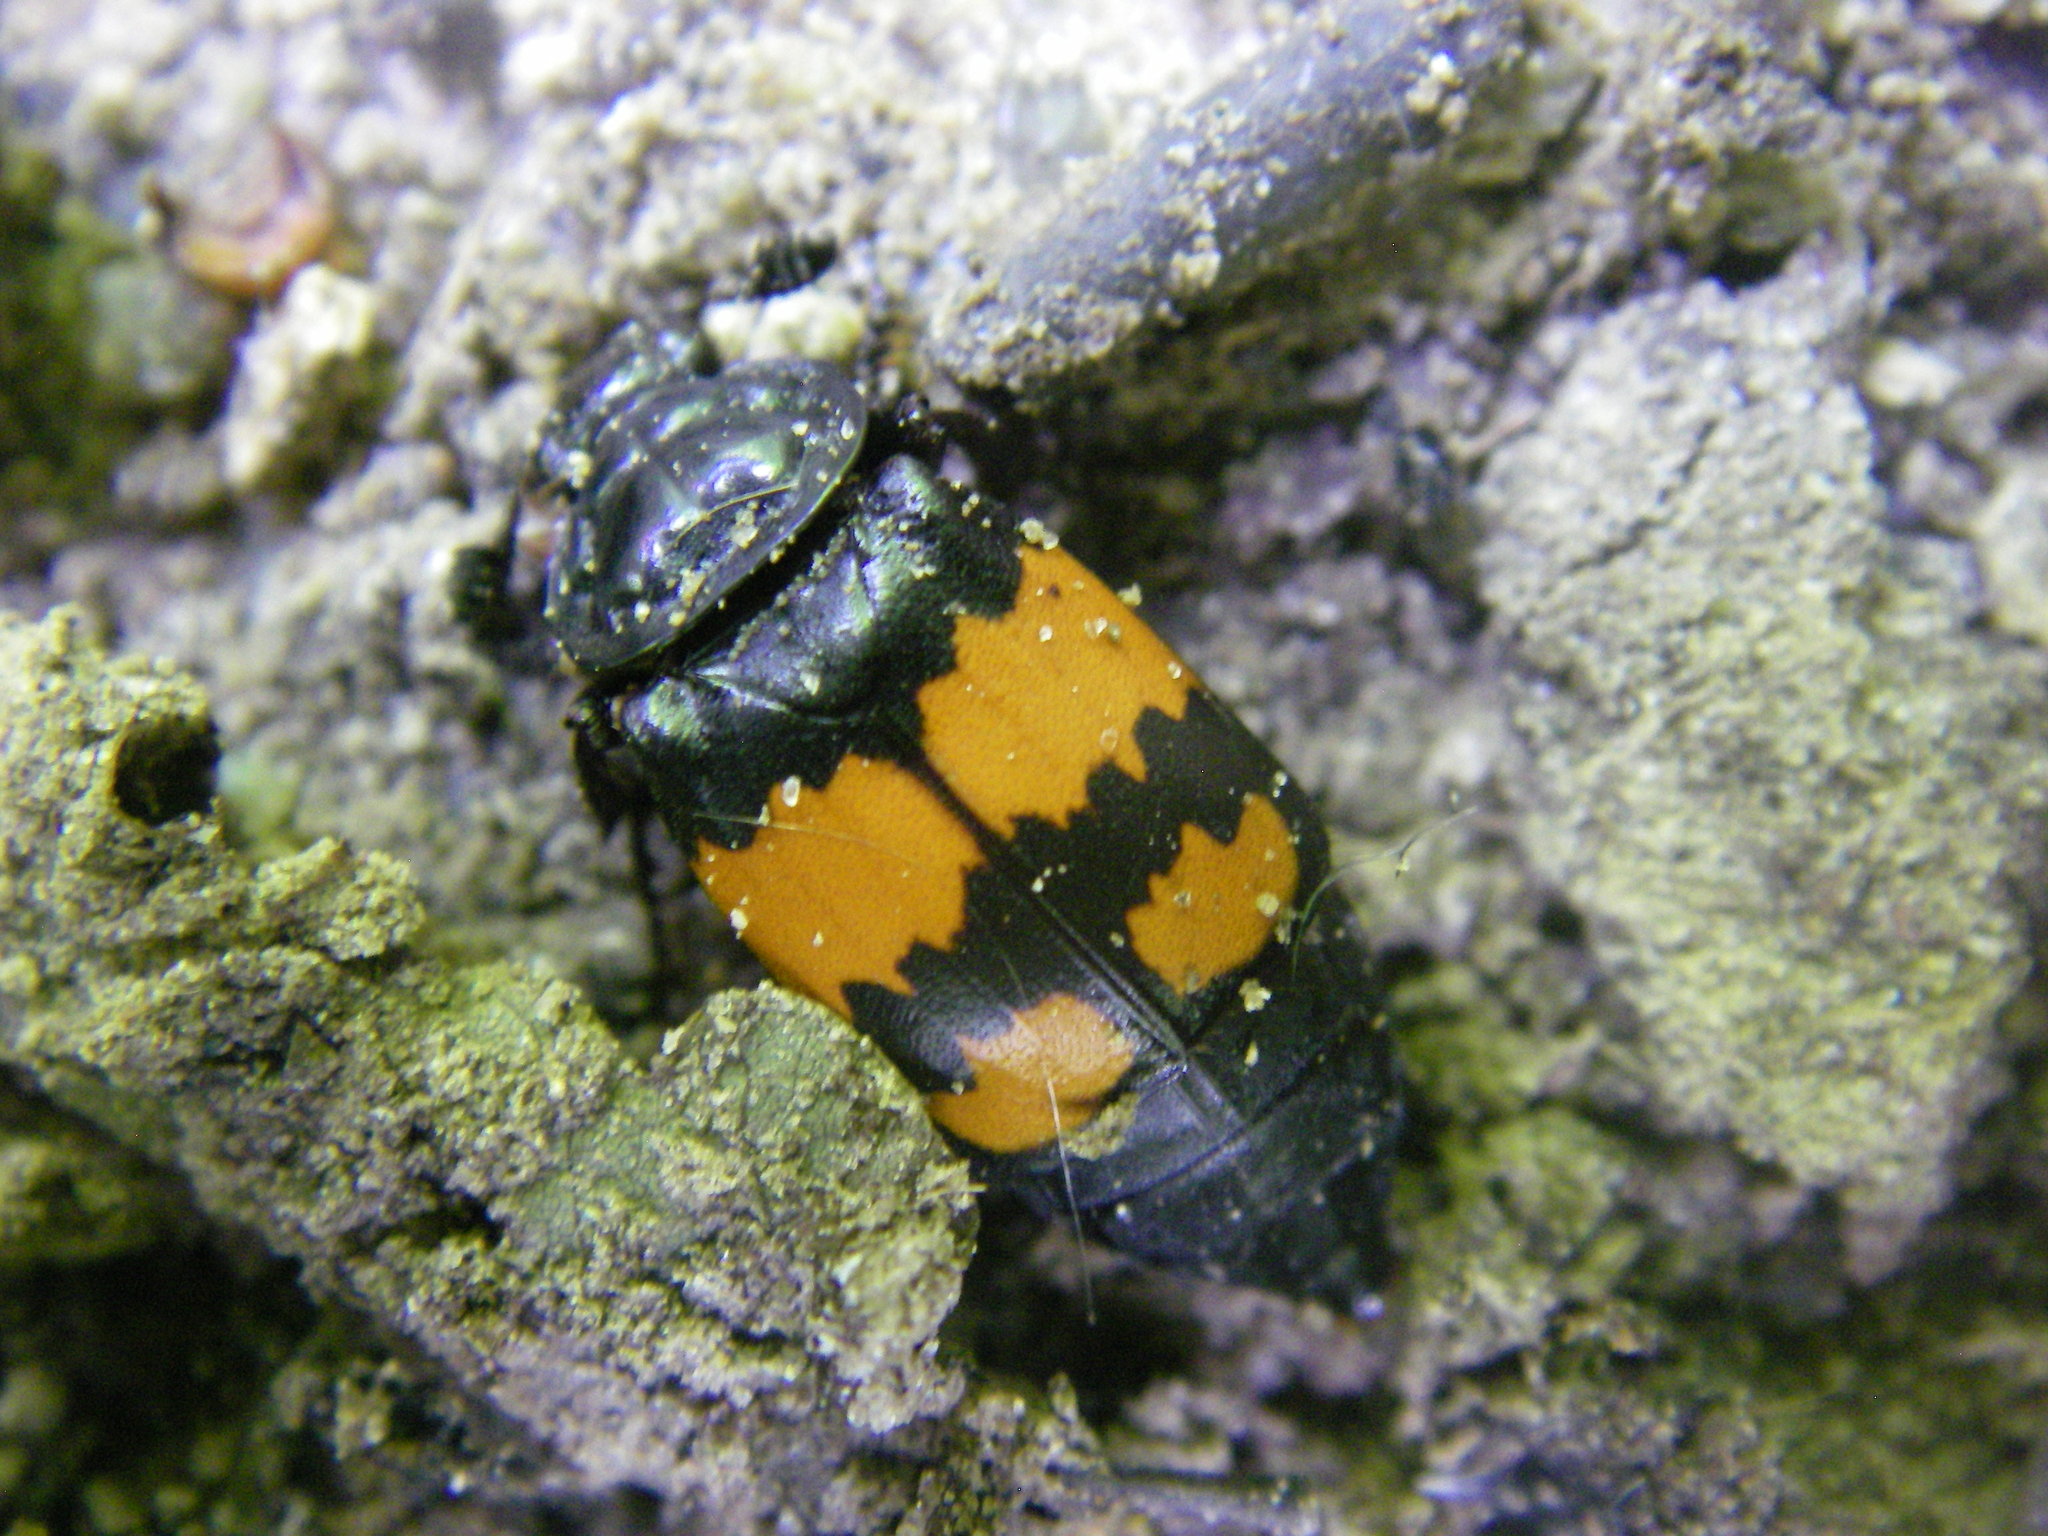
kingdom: Animalia
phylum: Arthropoda
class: Insecta
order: Coleoptera
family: Staphylinidae
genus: Nicrophorus
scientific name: Nicrophorus vespilloides
